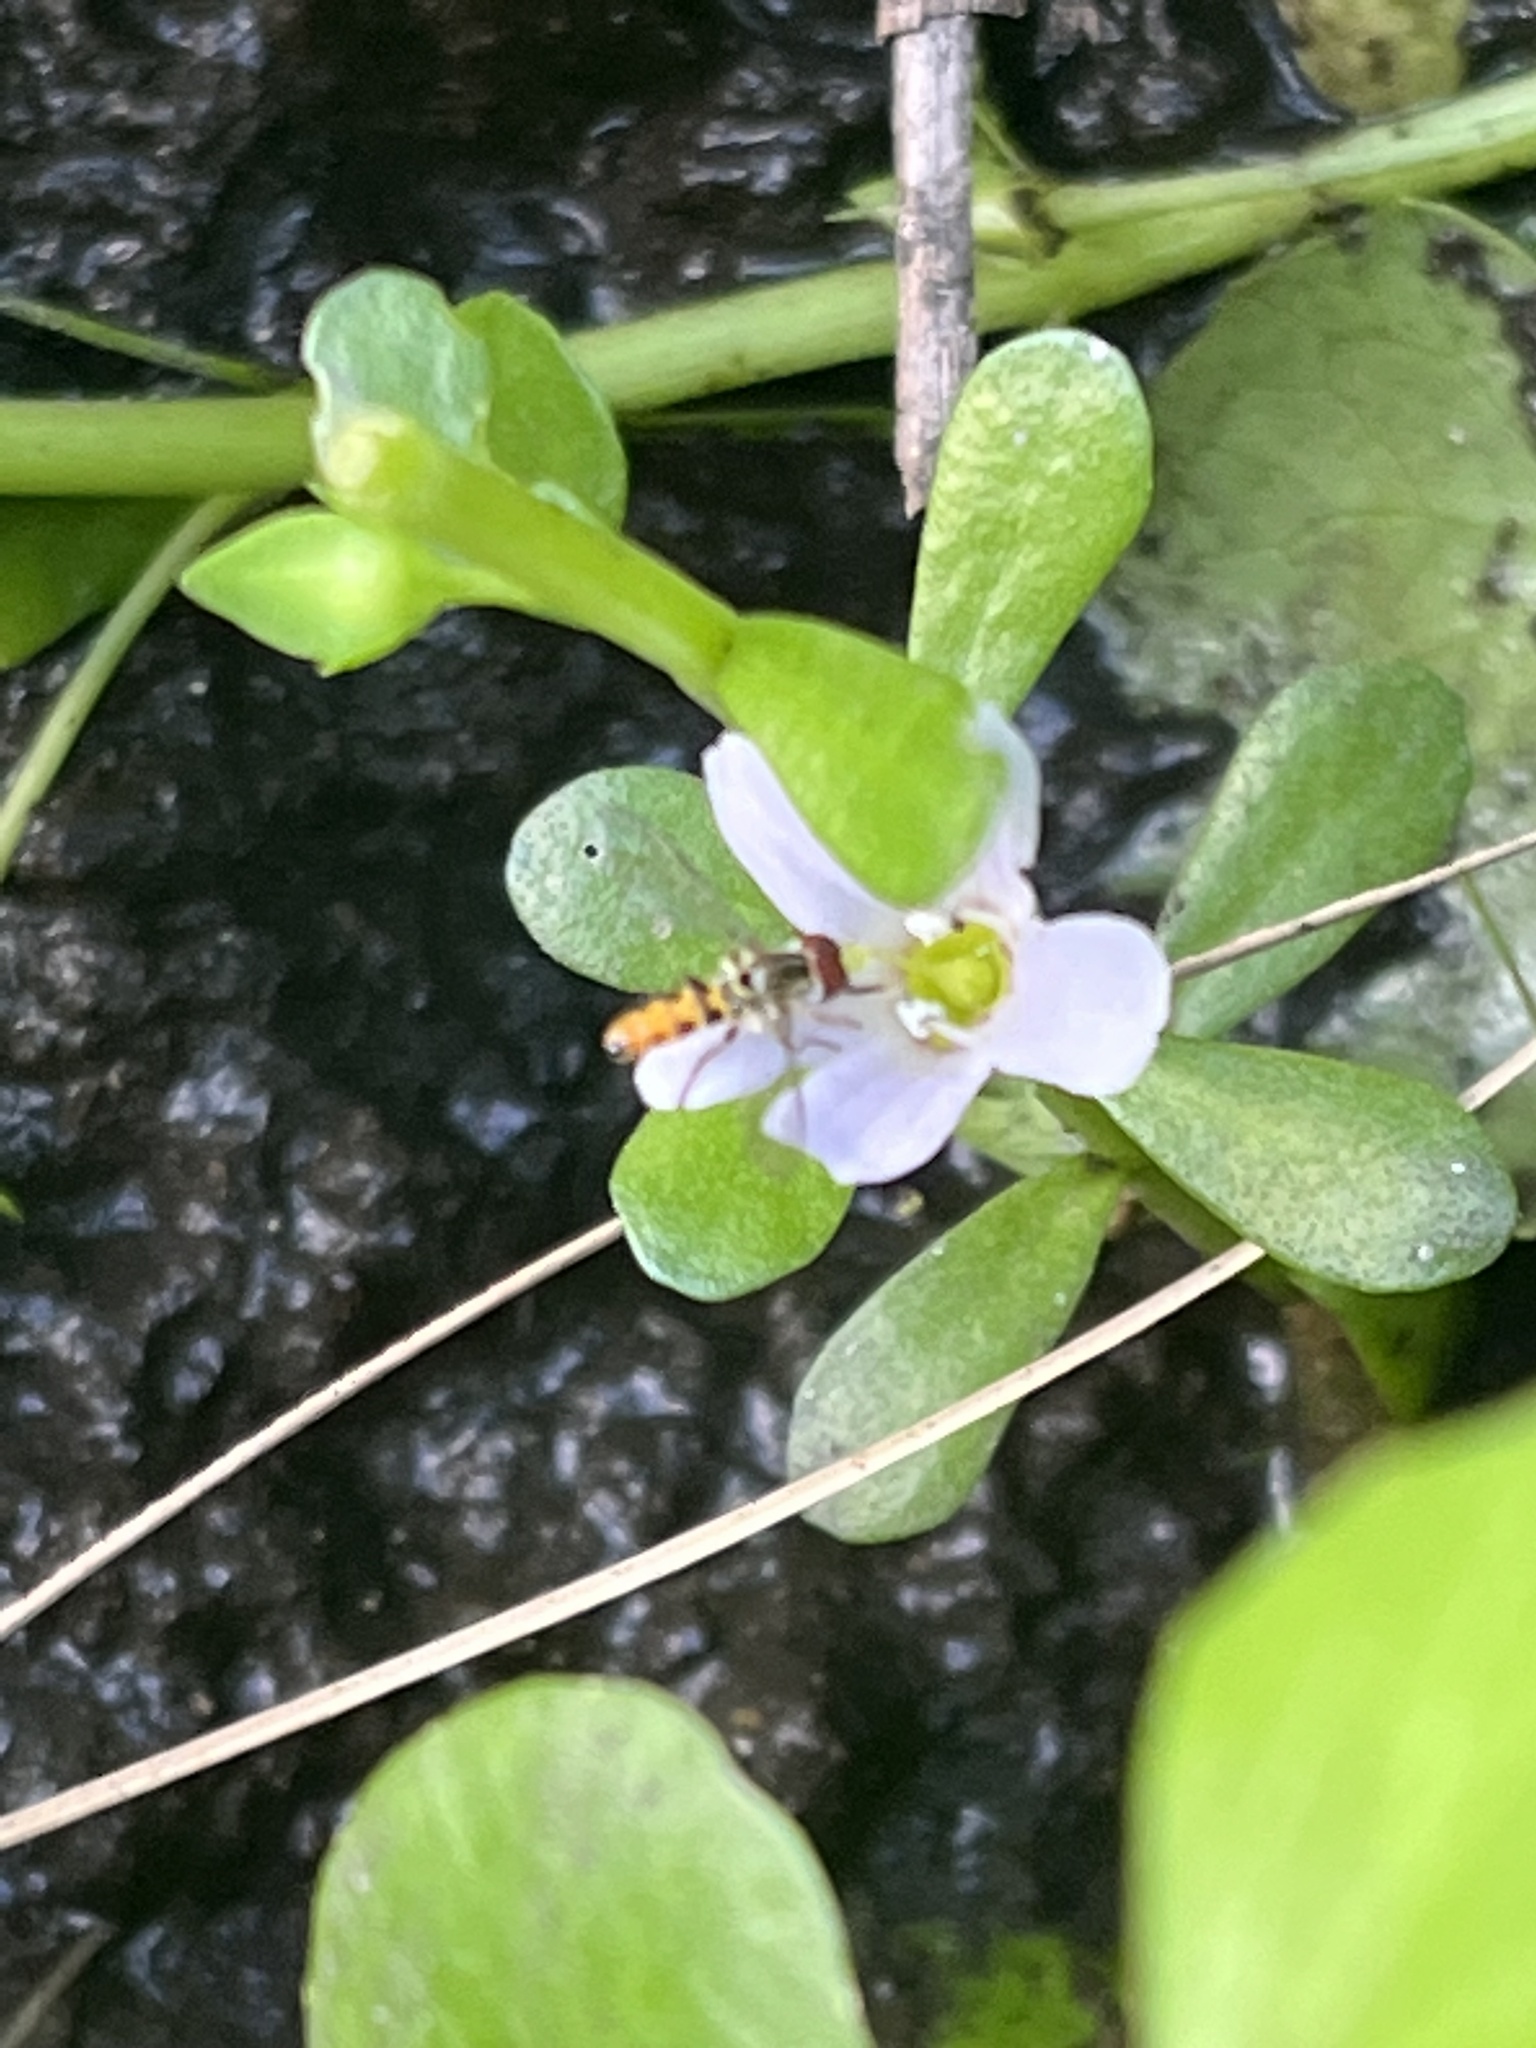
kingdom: Plantae
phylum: Tracheophyta
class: Magnoliopsida
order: Lamiales
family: Plantaginaceae
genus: Bacopa
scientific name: Bacopa monnieri
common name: Indian-pennywort
